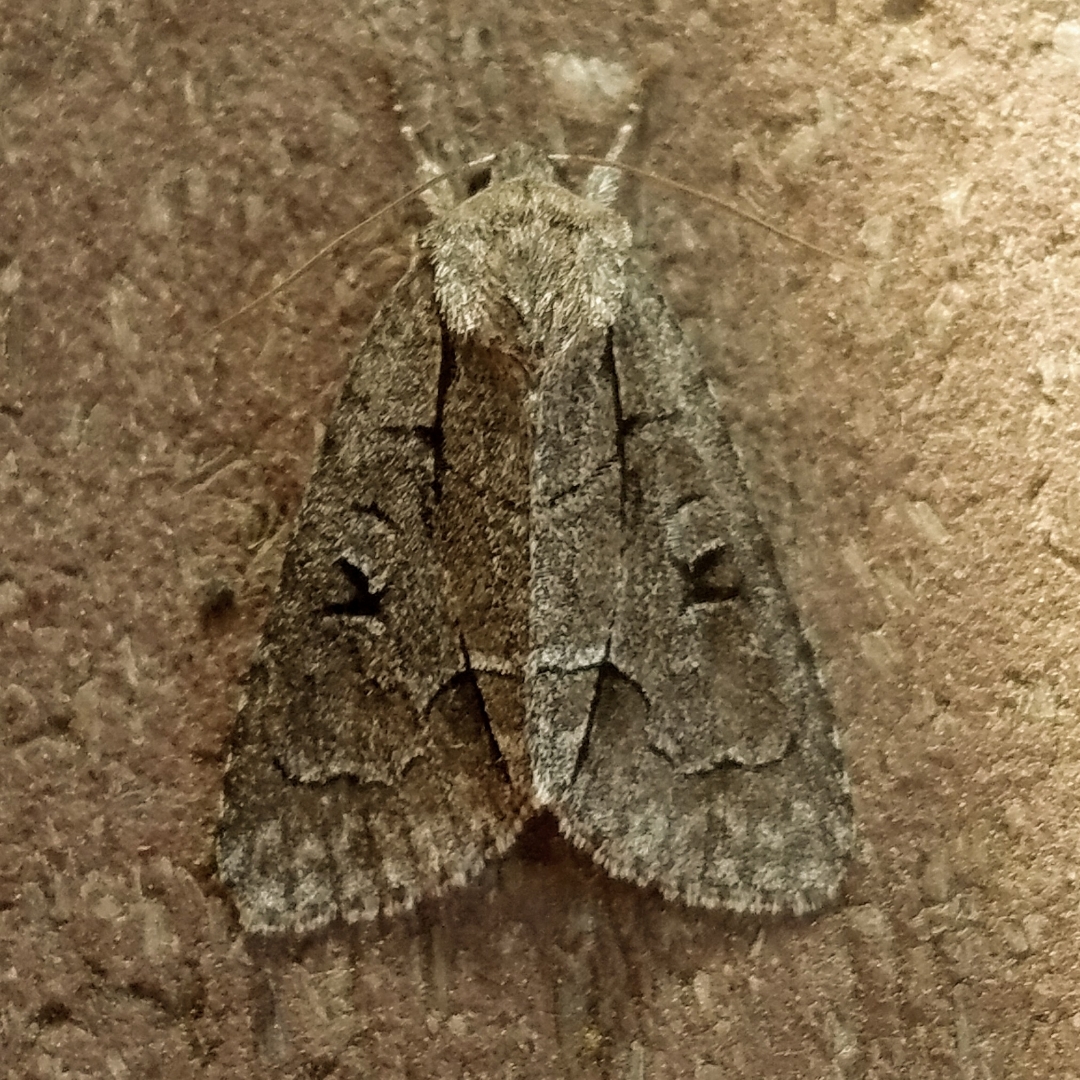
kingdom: Animalia
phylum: Arthropoda
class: Insecta
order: Lepidoptera
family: Noctuidae
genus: Acronicta
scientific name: Acronicta radcliffei
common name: Radcliffe's dagger
